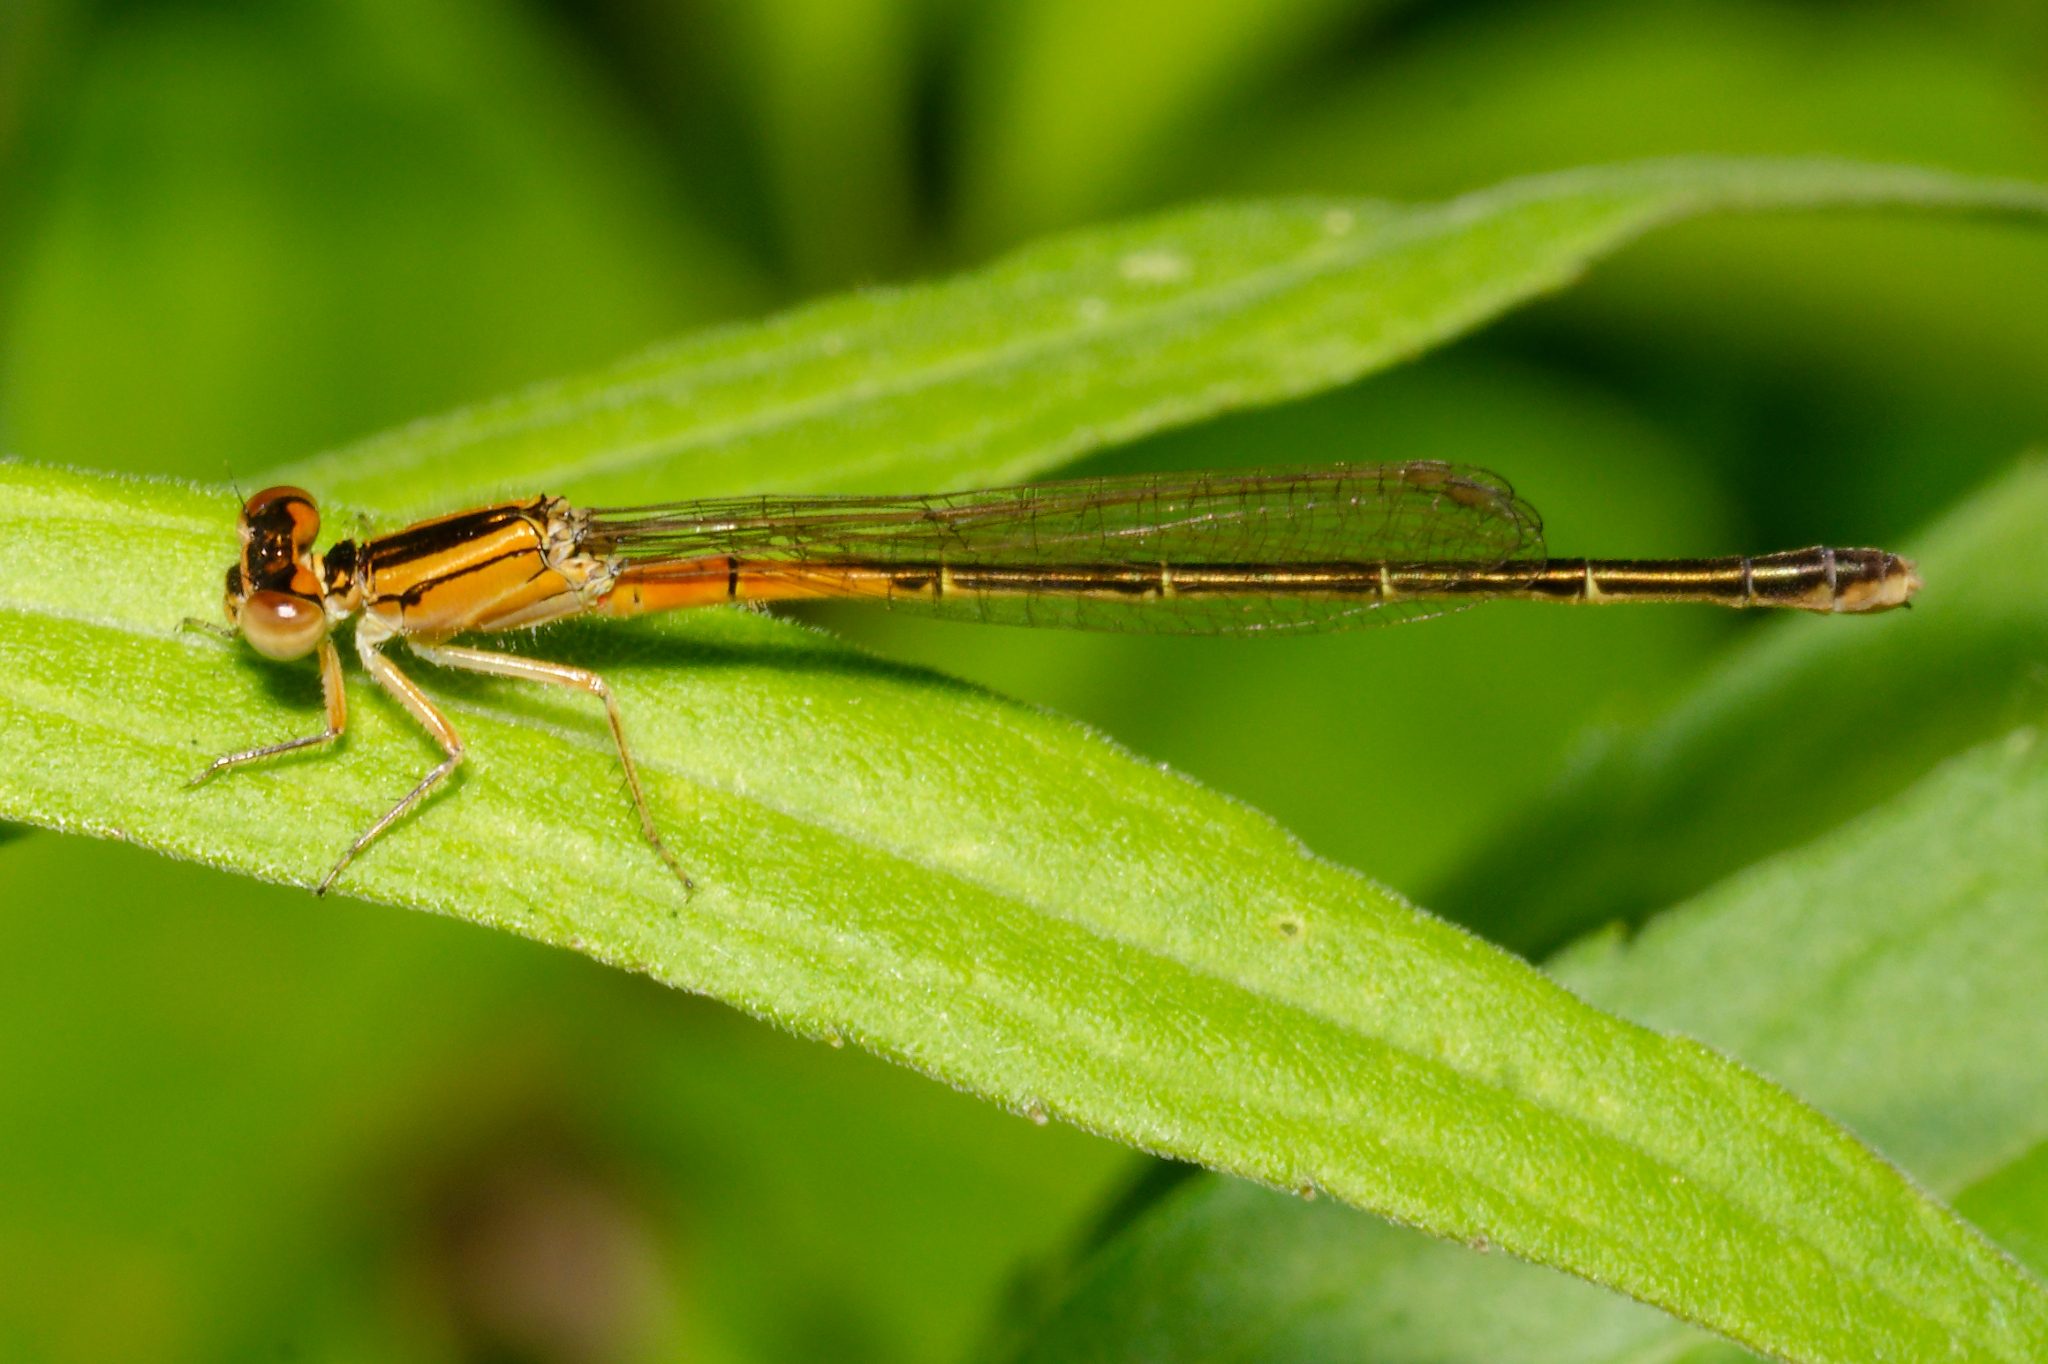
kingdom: Animalia
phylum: Arthropoda
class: Insecta
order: Odonata
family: Coenagrionidae
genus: Ischnura
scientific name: Ischnura verticalis
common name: Eastern forktail
